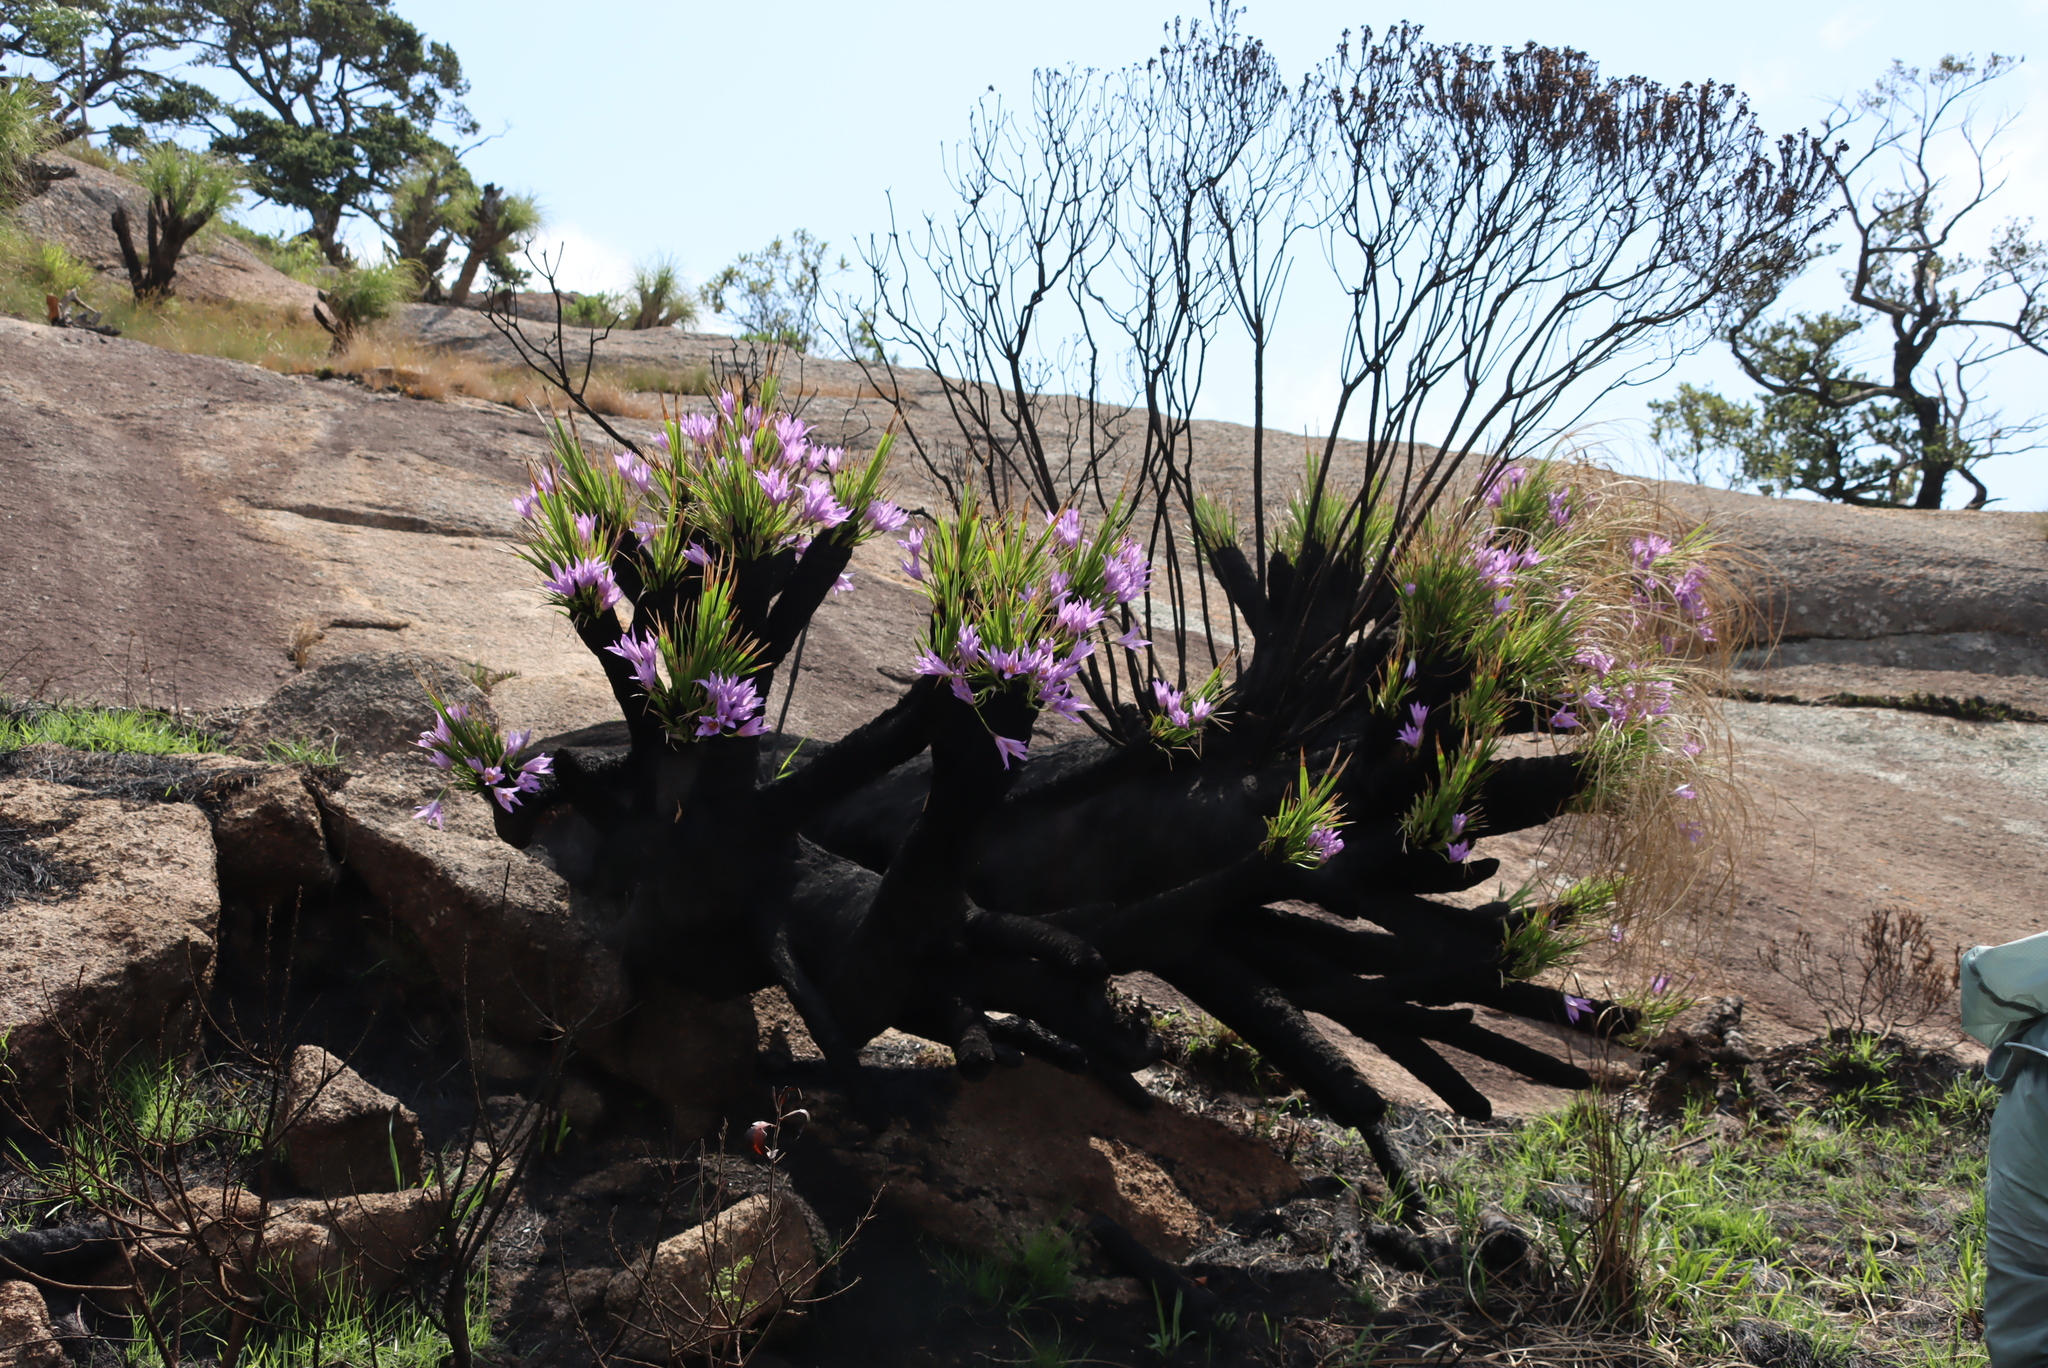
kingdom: Plantae
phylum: Tracheophyta
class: Liliopsida
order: Pandanales
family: Velloziaceae
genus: Xerophyta
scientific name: Xerophyta retinervis
